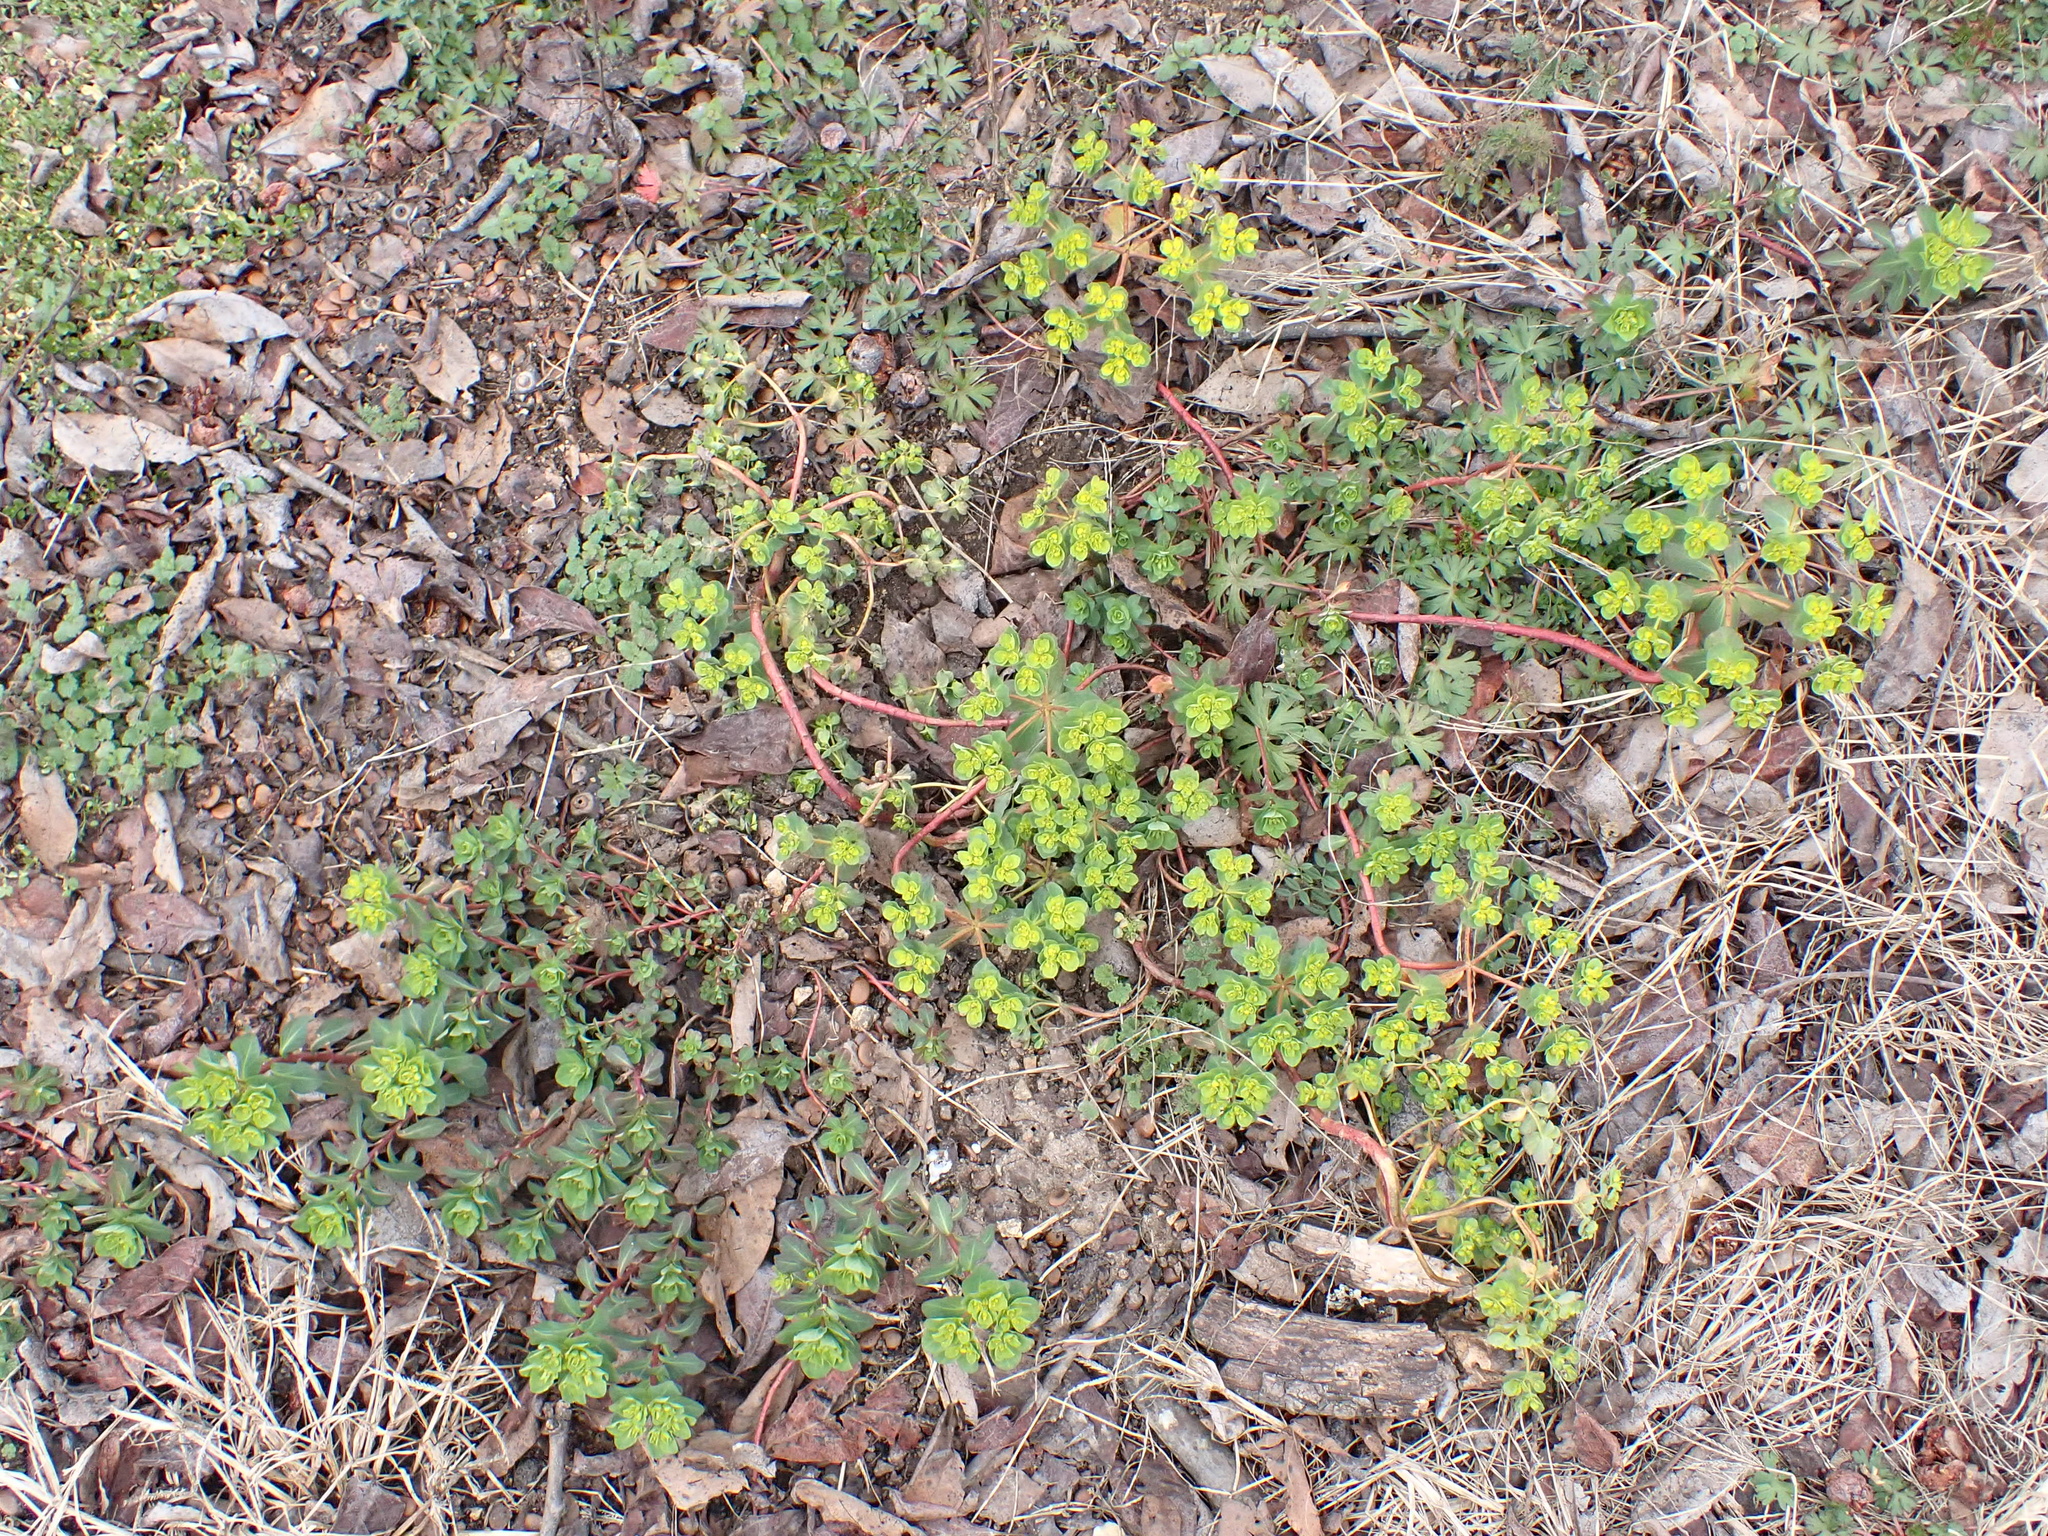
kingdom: Plantae
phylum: Tracheophyta
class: Magnoliopsida
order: Malpighiales
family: Euphorbiaceae
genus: Euphorbia
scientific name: Euphorbia helioscopia
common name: Sun spurge
